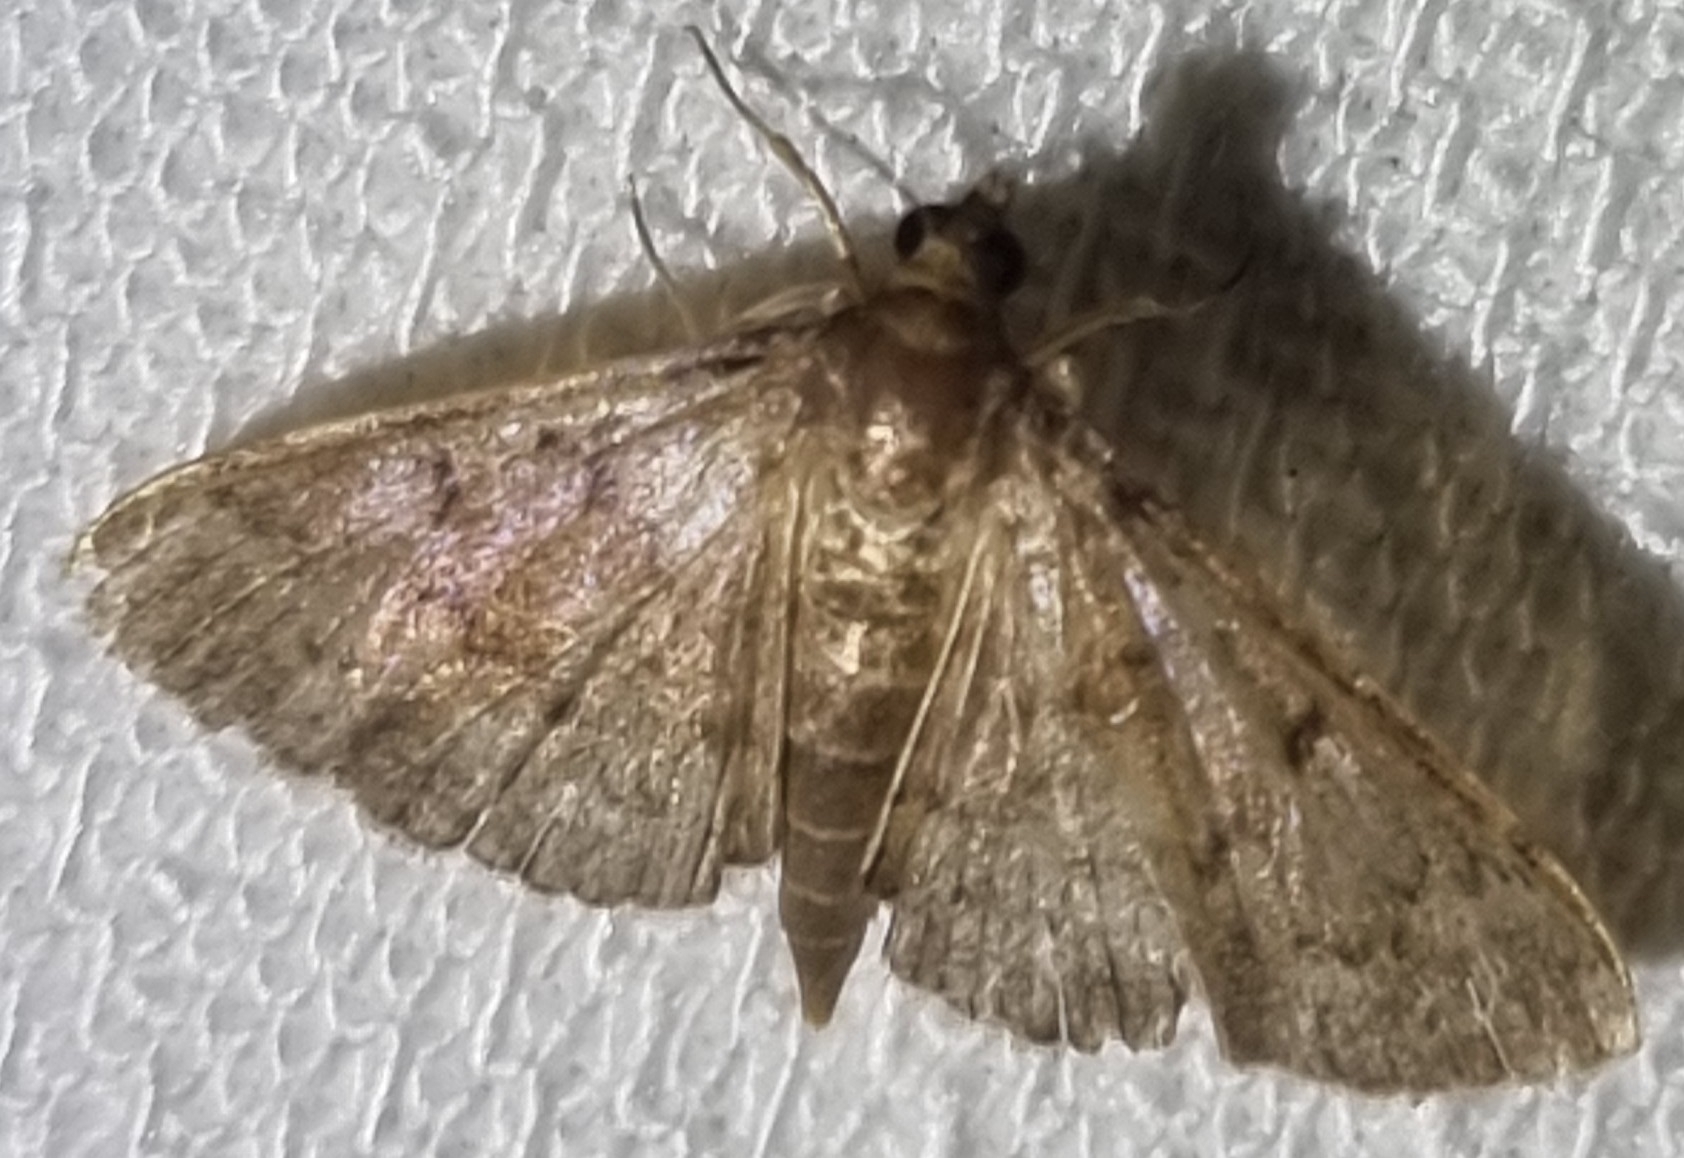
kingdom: Animalia
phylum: Arthropoda
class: Insecta
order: Lepidoptera
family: Crambidae
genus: Herpetogramma
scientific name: Herpetogramma licarsisalis
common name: Grass webworm
